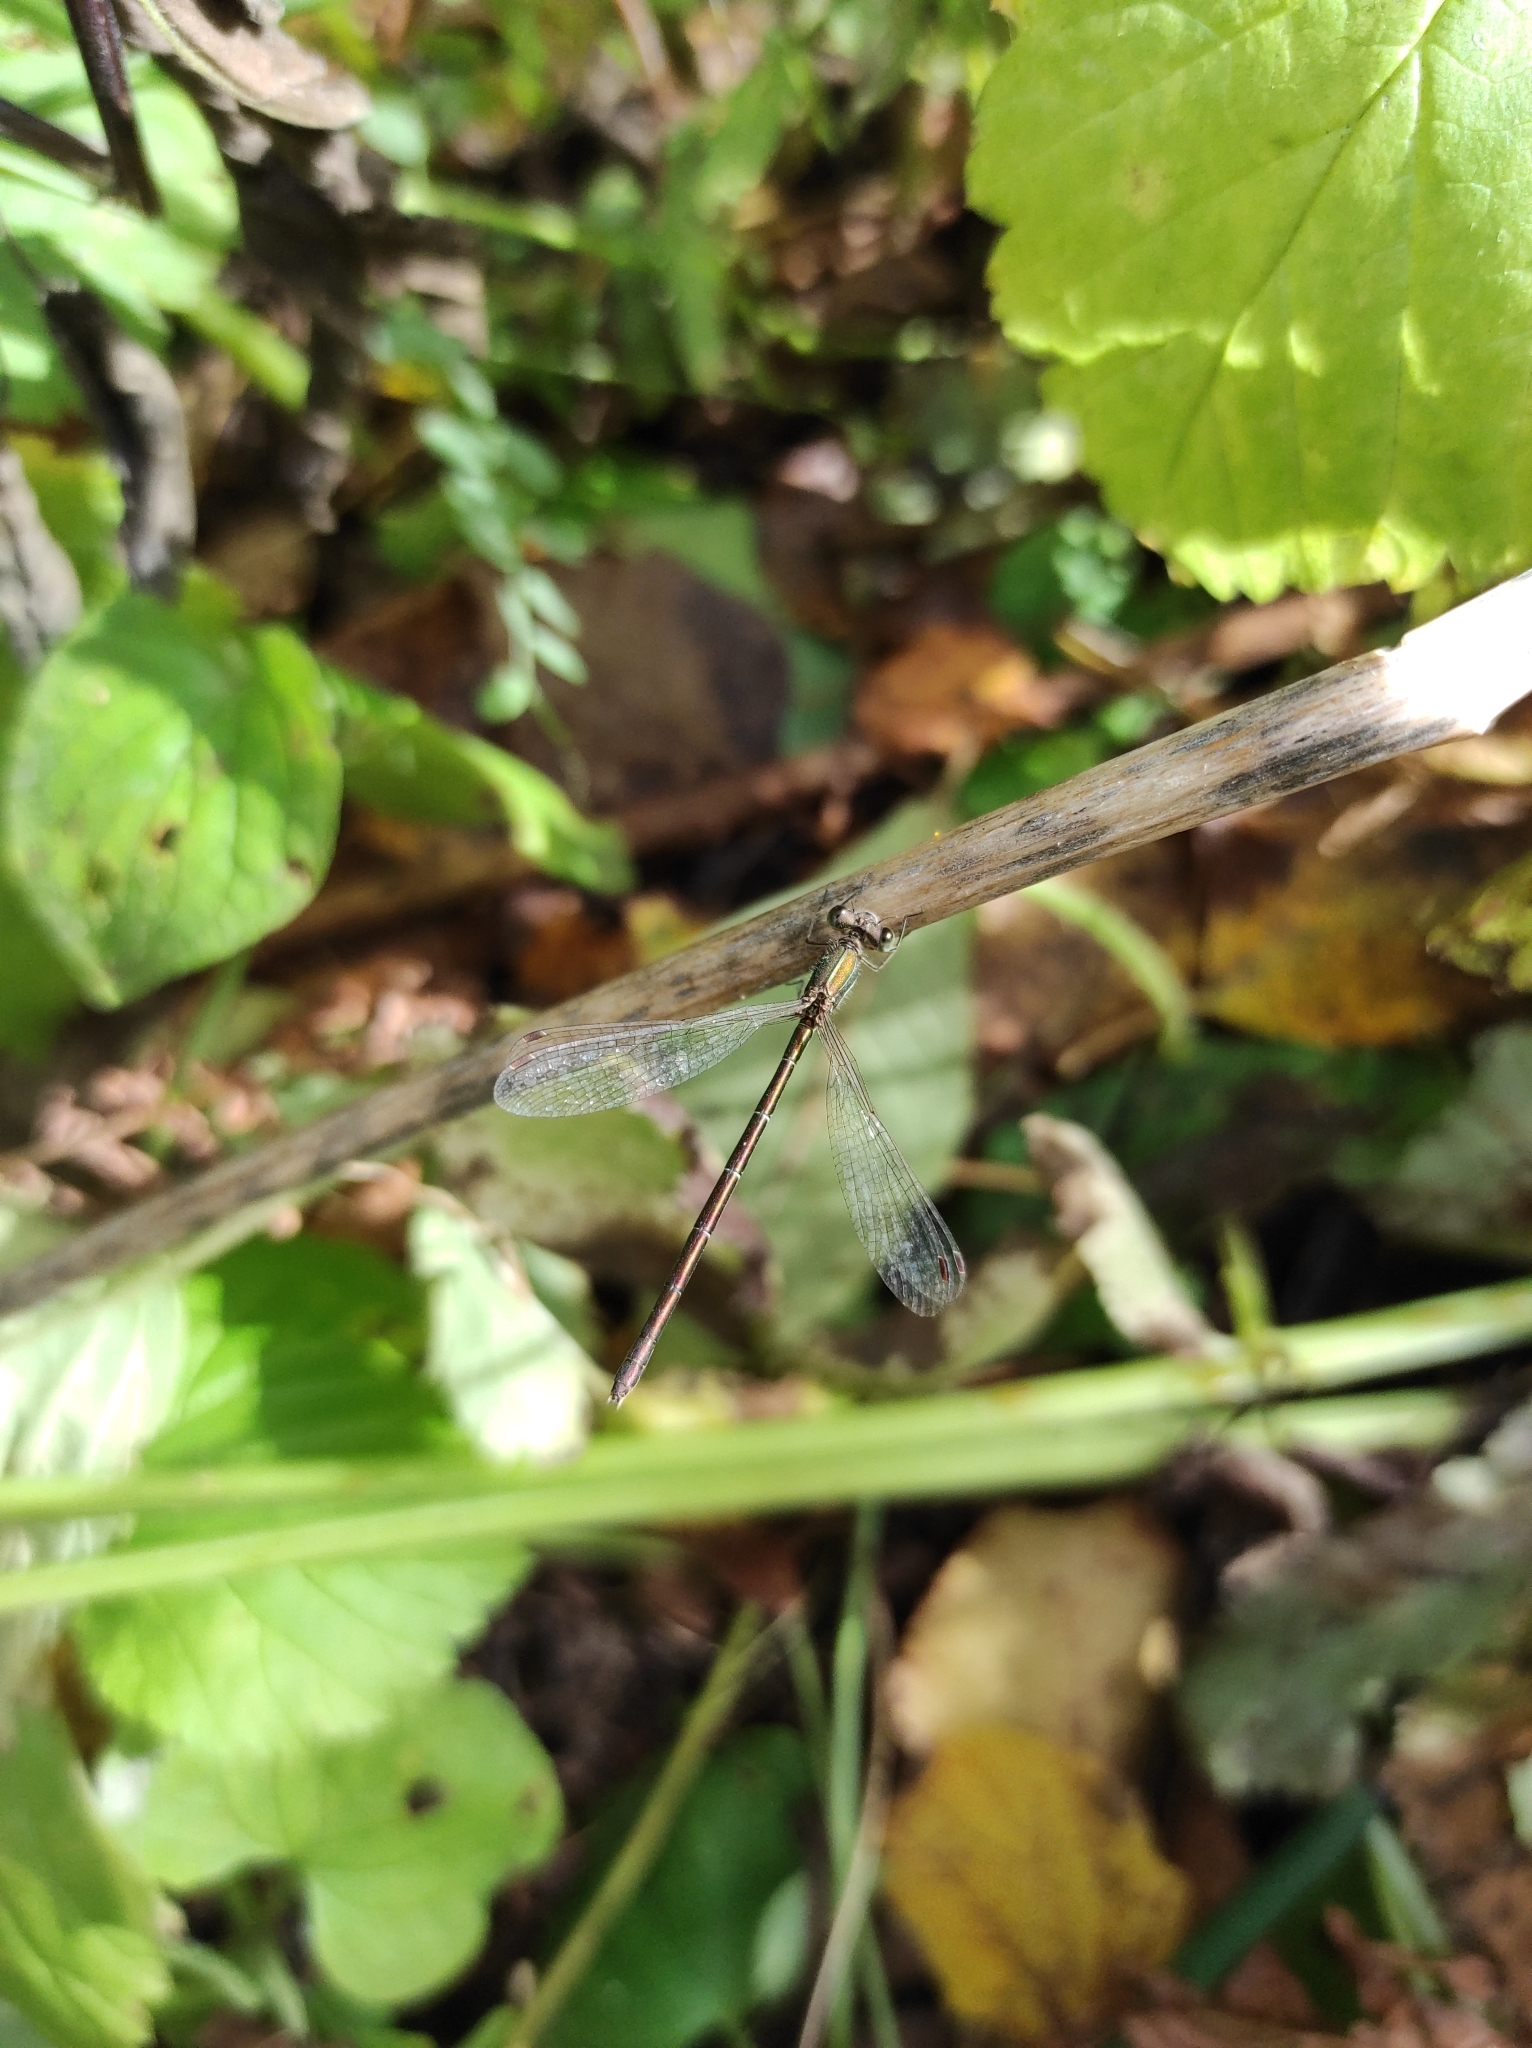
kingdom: Animalia
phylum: Arthropoda
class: Insecta
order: Odonata
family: Lestidae
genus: Lestes
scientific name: Lestes virens
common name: Small emerald spreadwing
